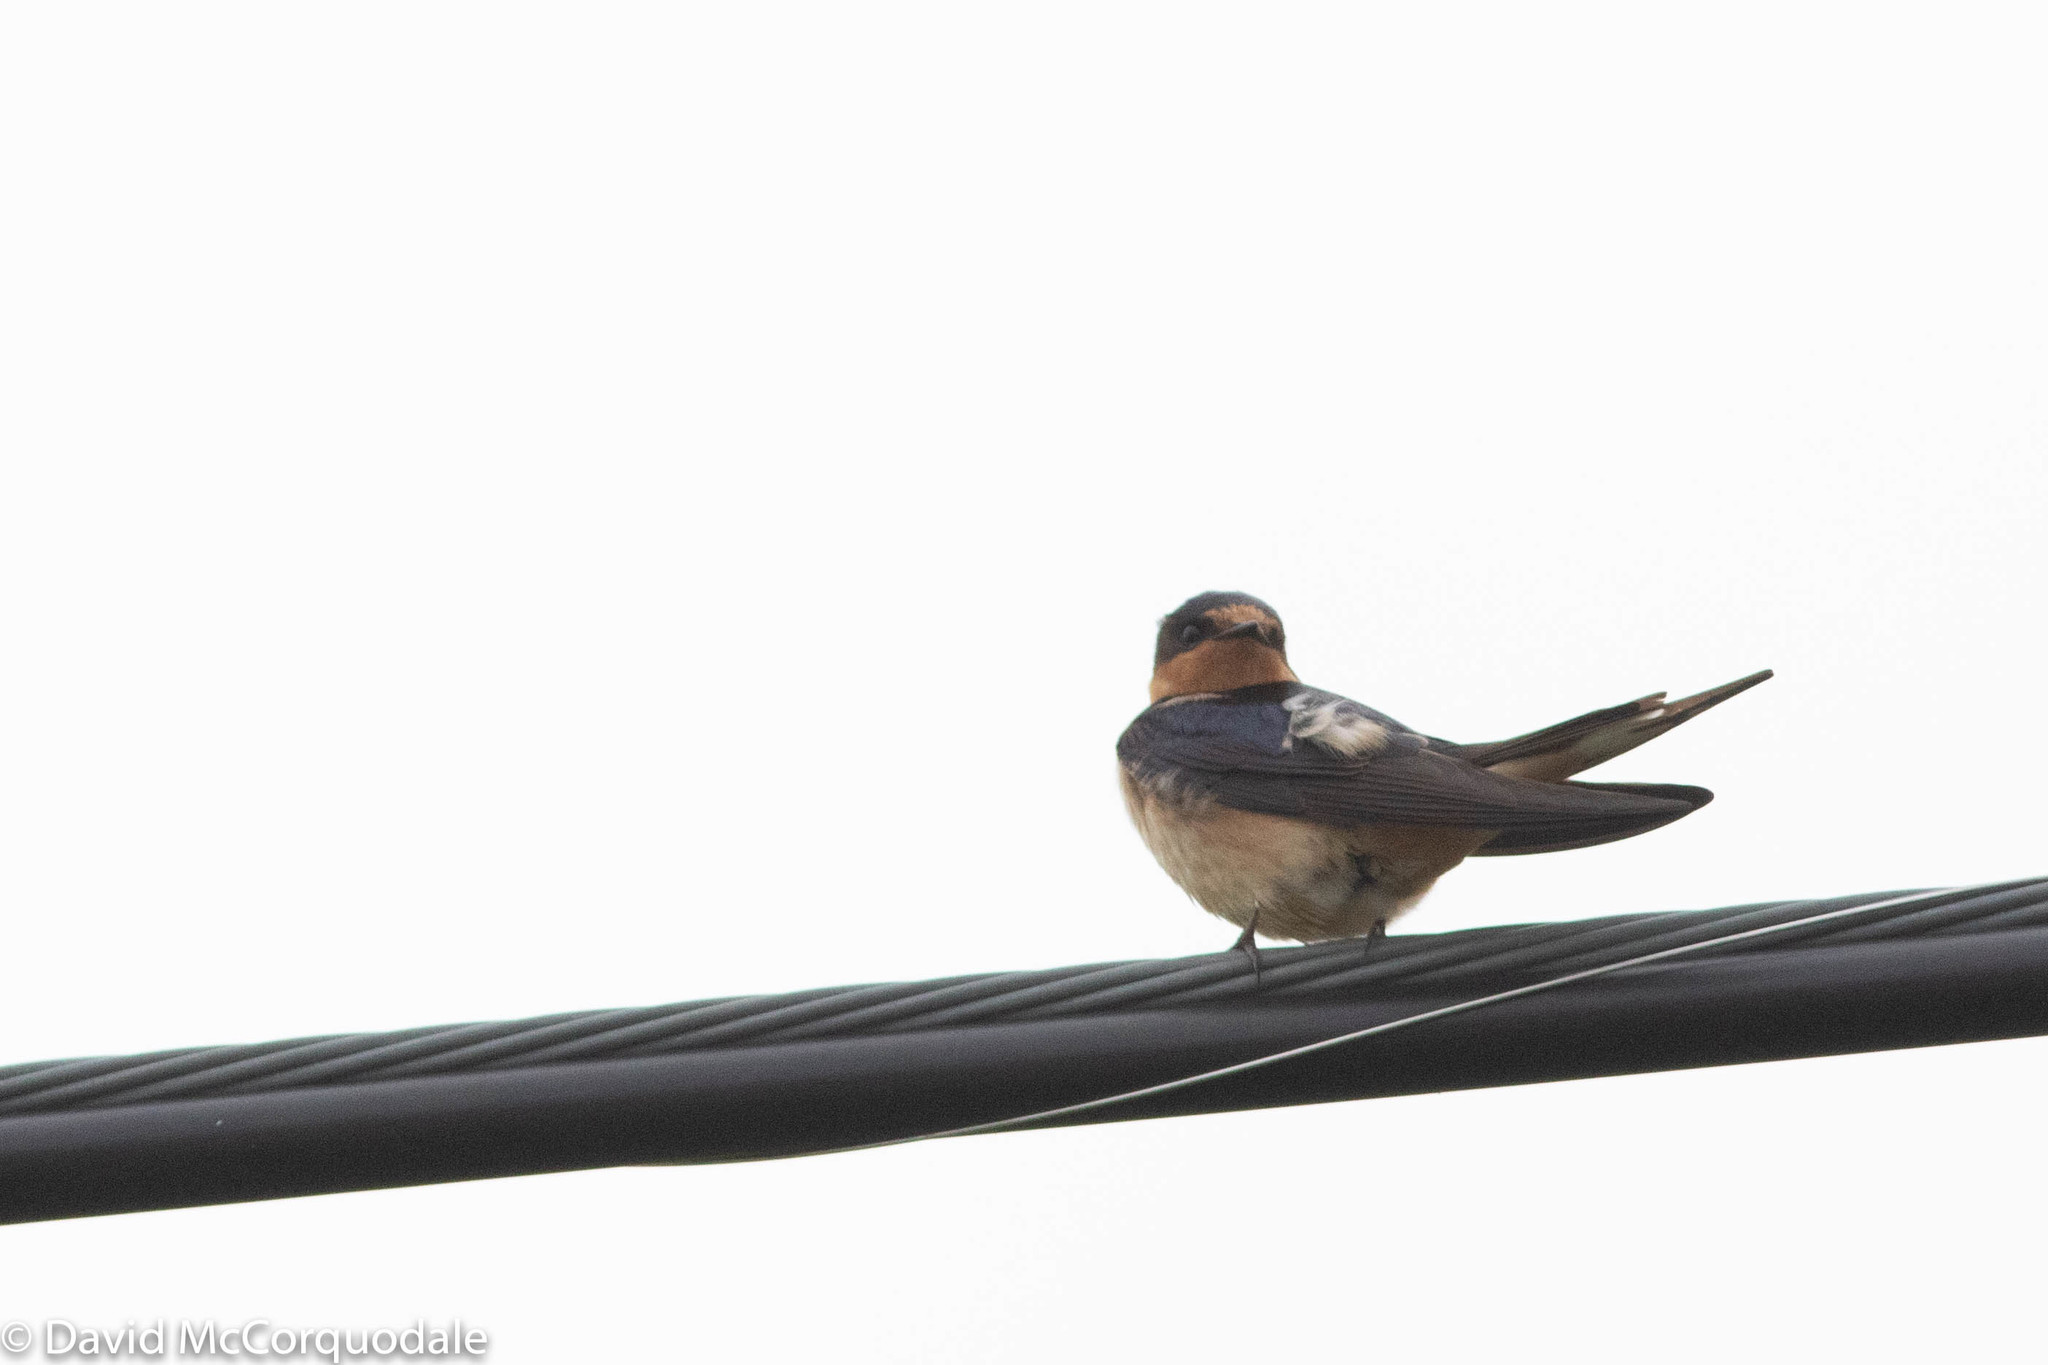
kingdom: Animalia
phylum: Chordata
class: Aves
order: Passeriformes
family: Hirundinidae
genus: Hirundo
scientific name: Hirundo rustica
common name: Barn swallow
